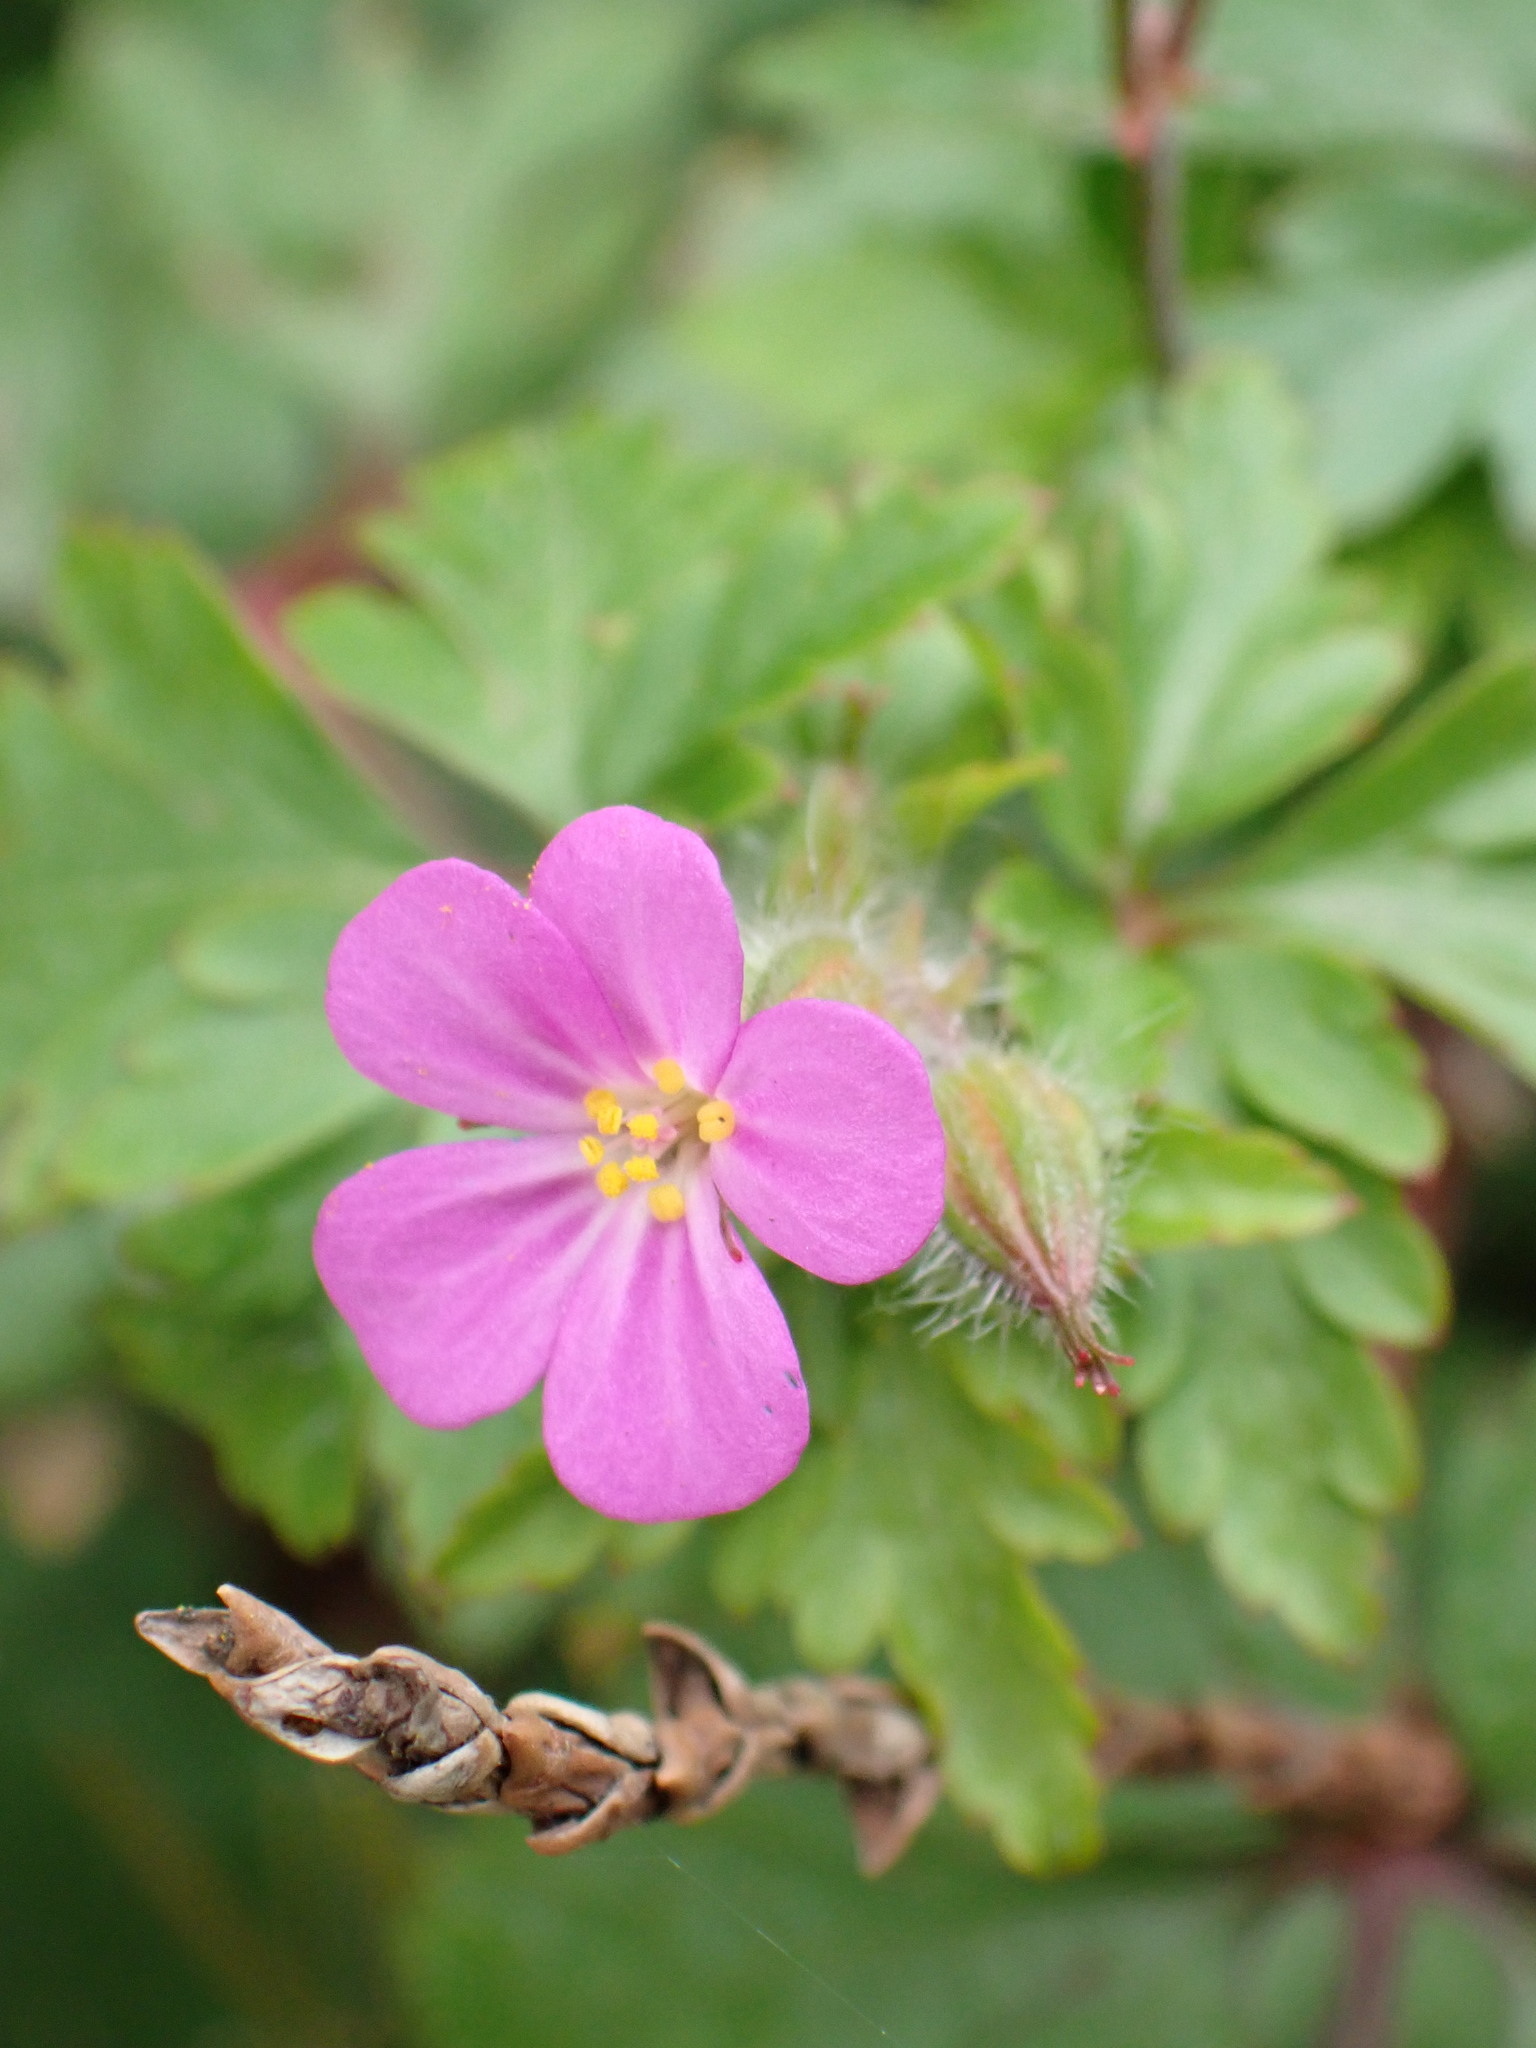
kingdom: Plantae
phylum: Tracheophyta
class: Magnoliopsida
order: Geraniales
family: Geraniaceae
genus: Geranium
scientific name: Geranium purpureum
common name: Little-robin
